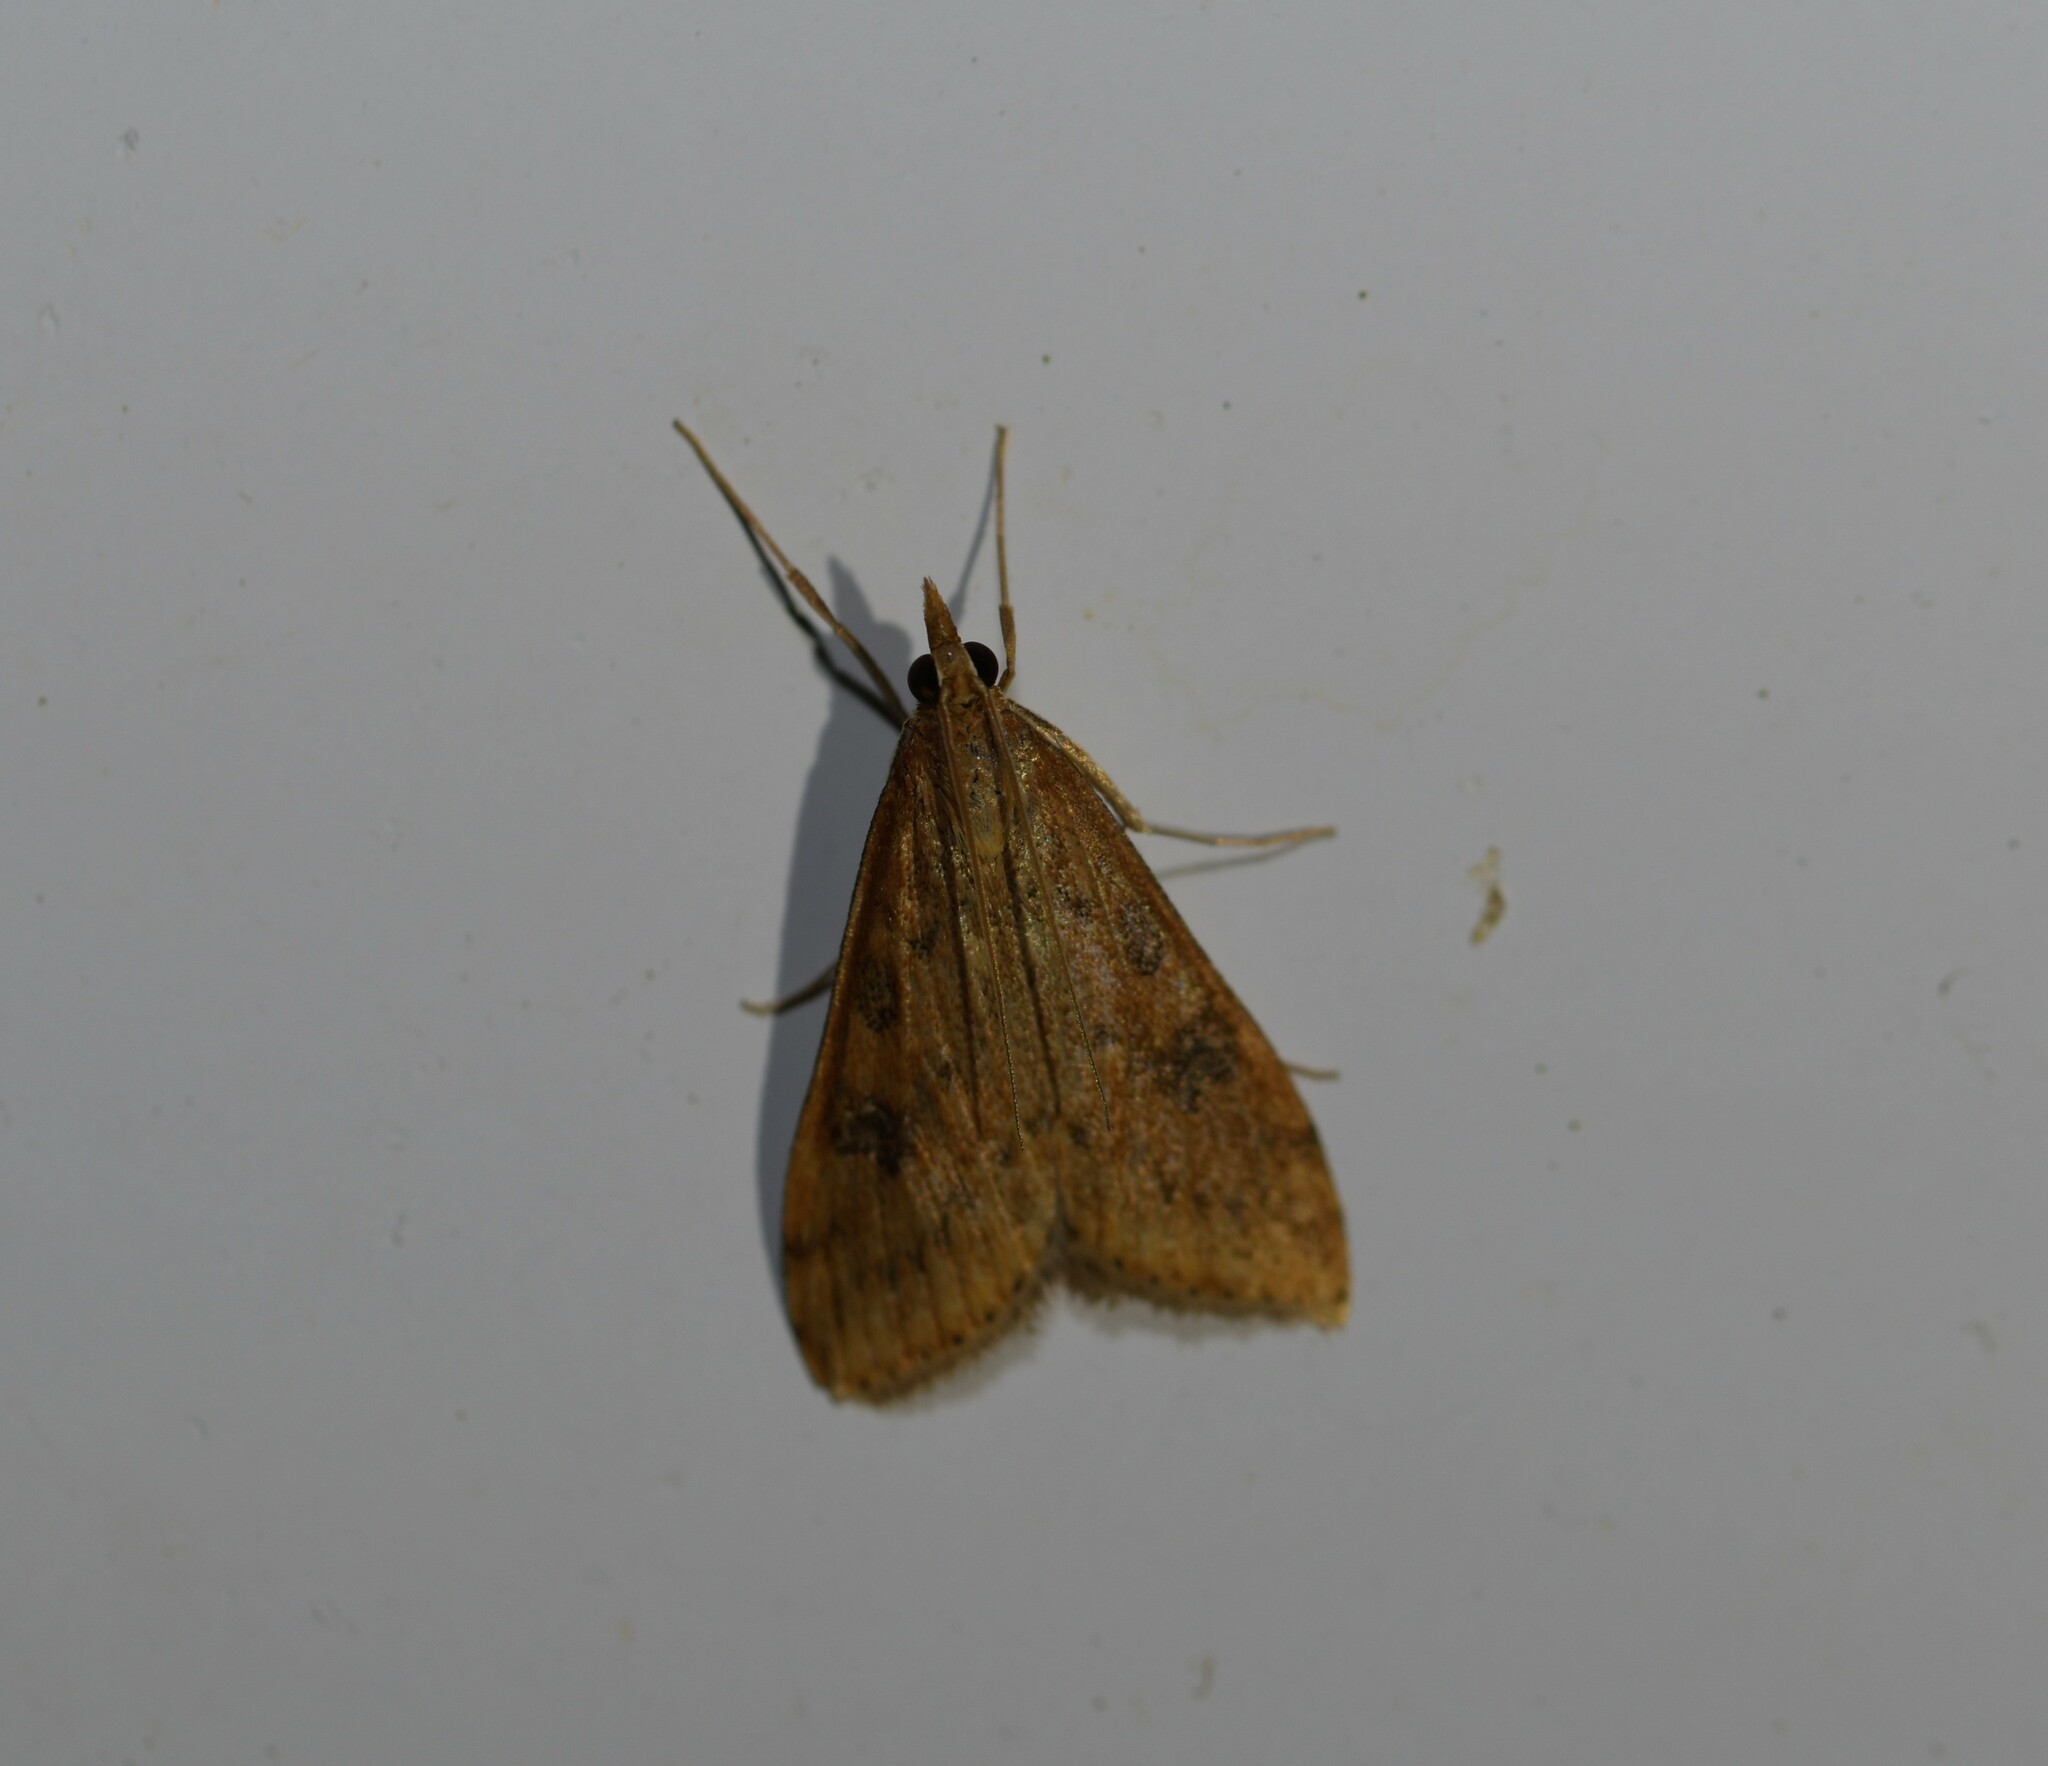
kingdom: Animalia
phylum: Arthropoda
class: Insecta
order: Lepidoptera
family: Crambidae
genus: Udea
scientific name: Udea ferrugalis
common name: Rusty dot
